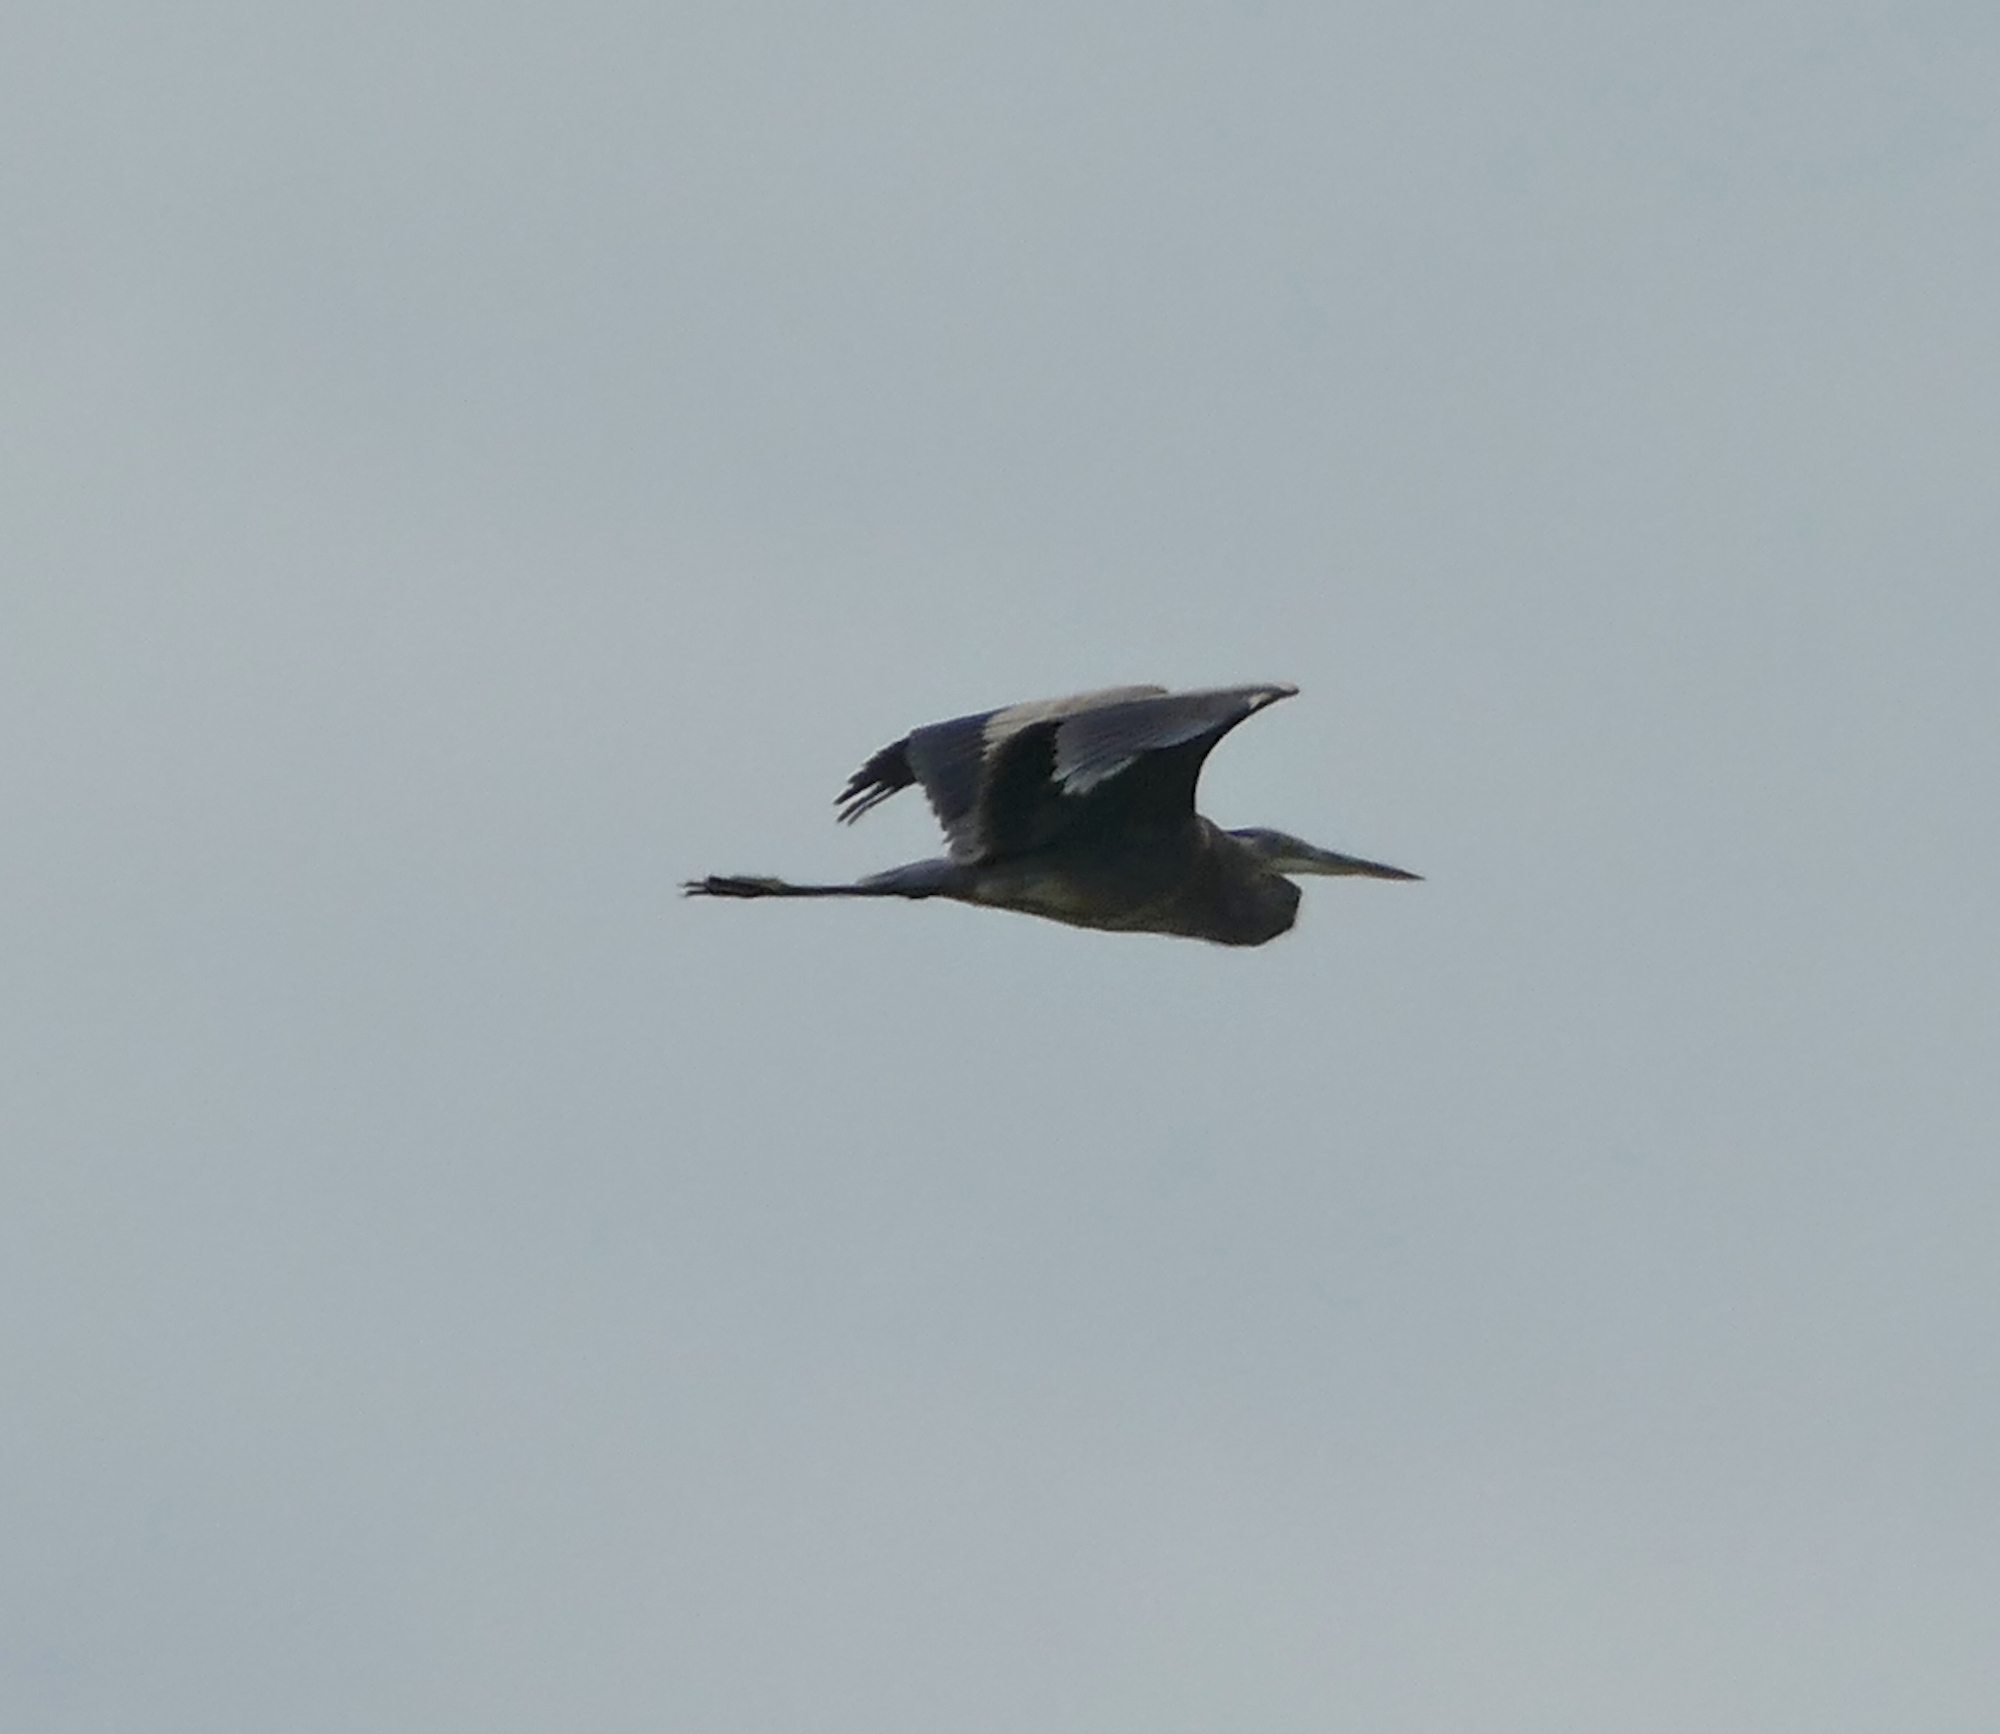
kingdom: Animalia
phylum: Chordata
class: Aves
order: Pelecaniformes
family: Ardeidae
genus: Ardea
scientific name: Ardea herodias
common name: Great blue heron
